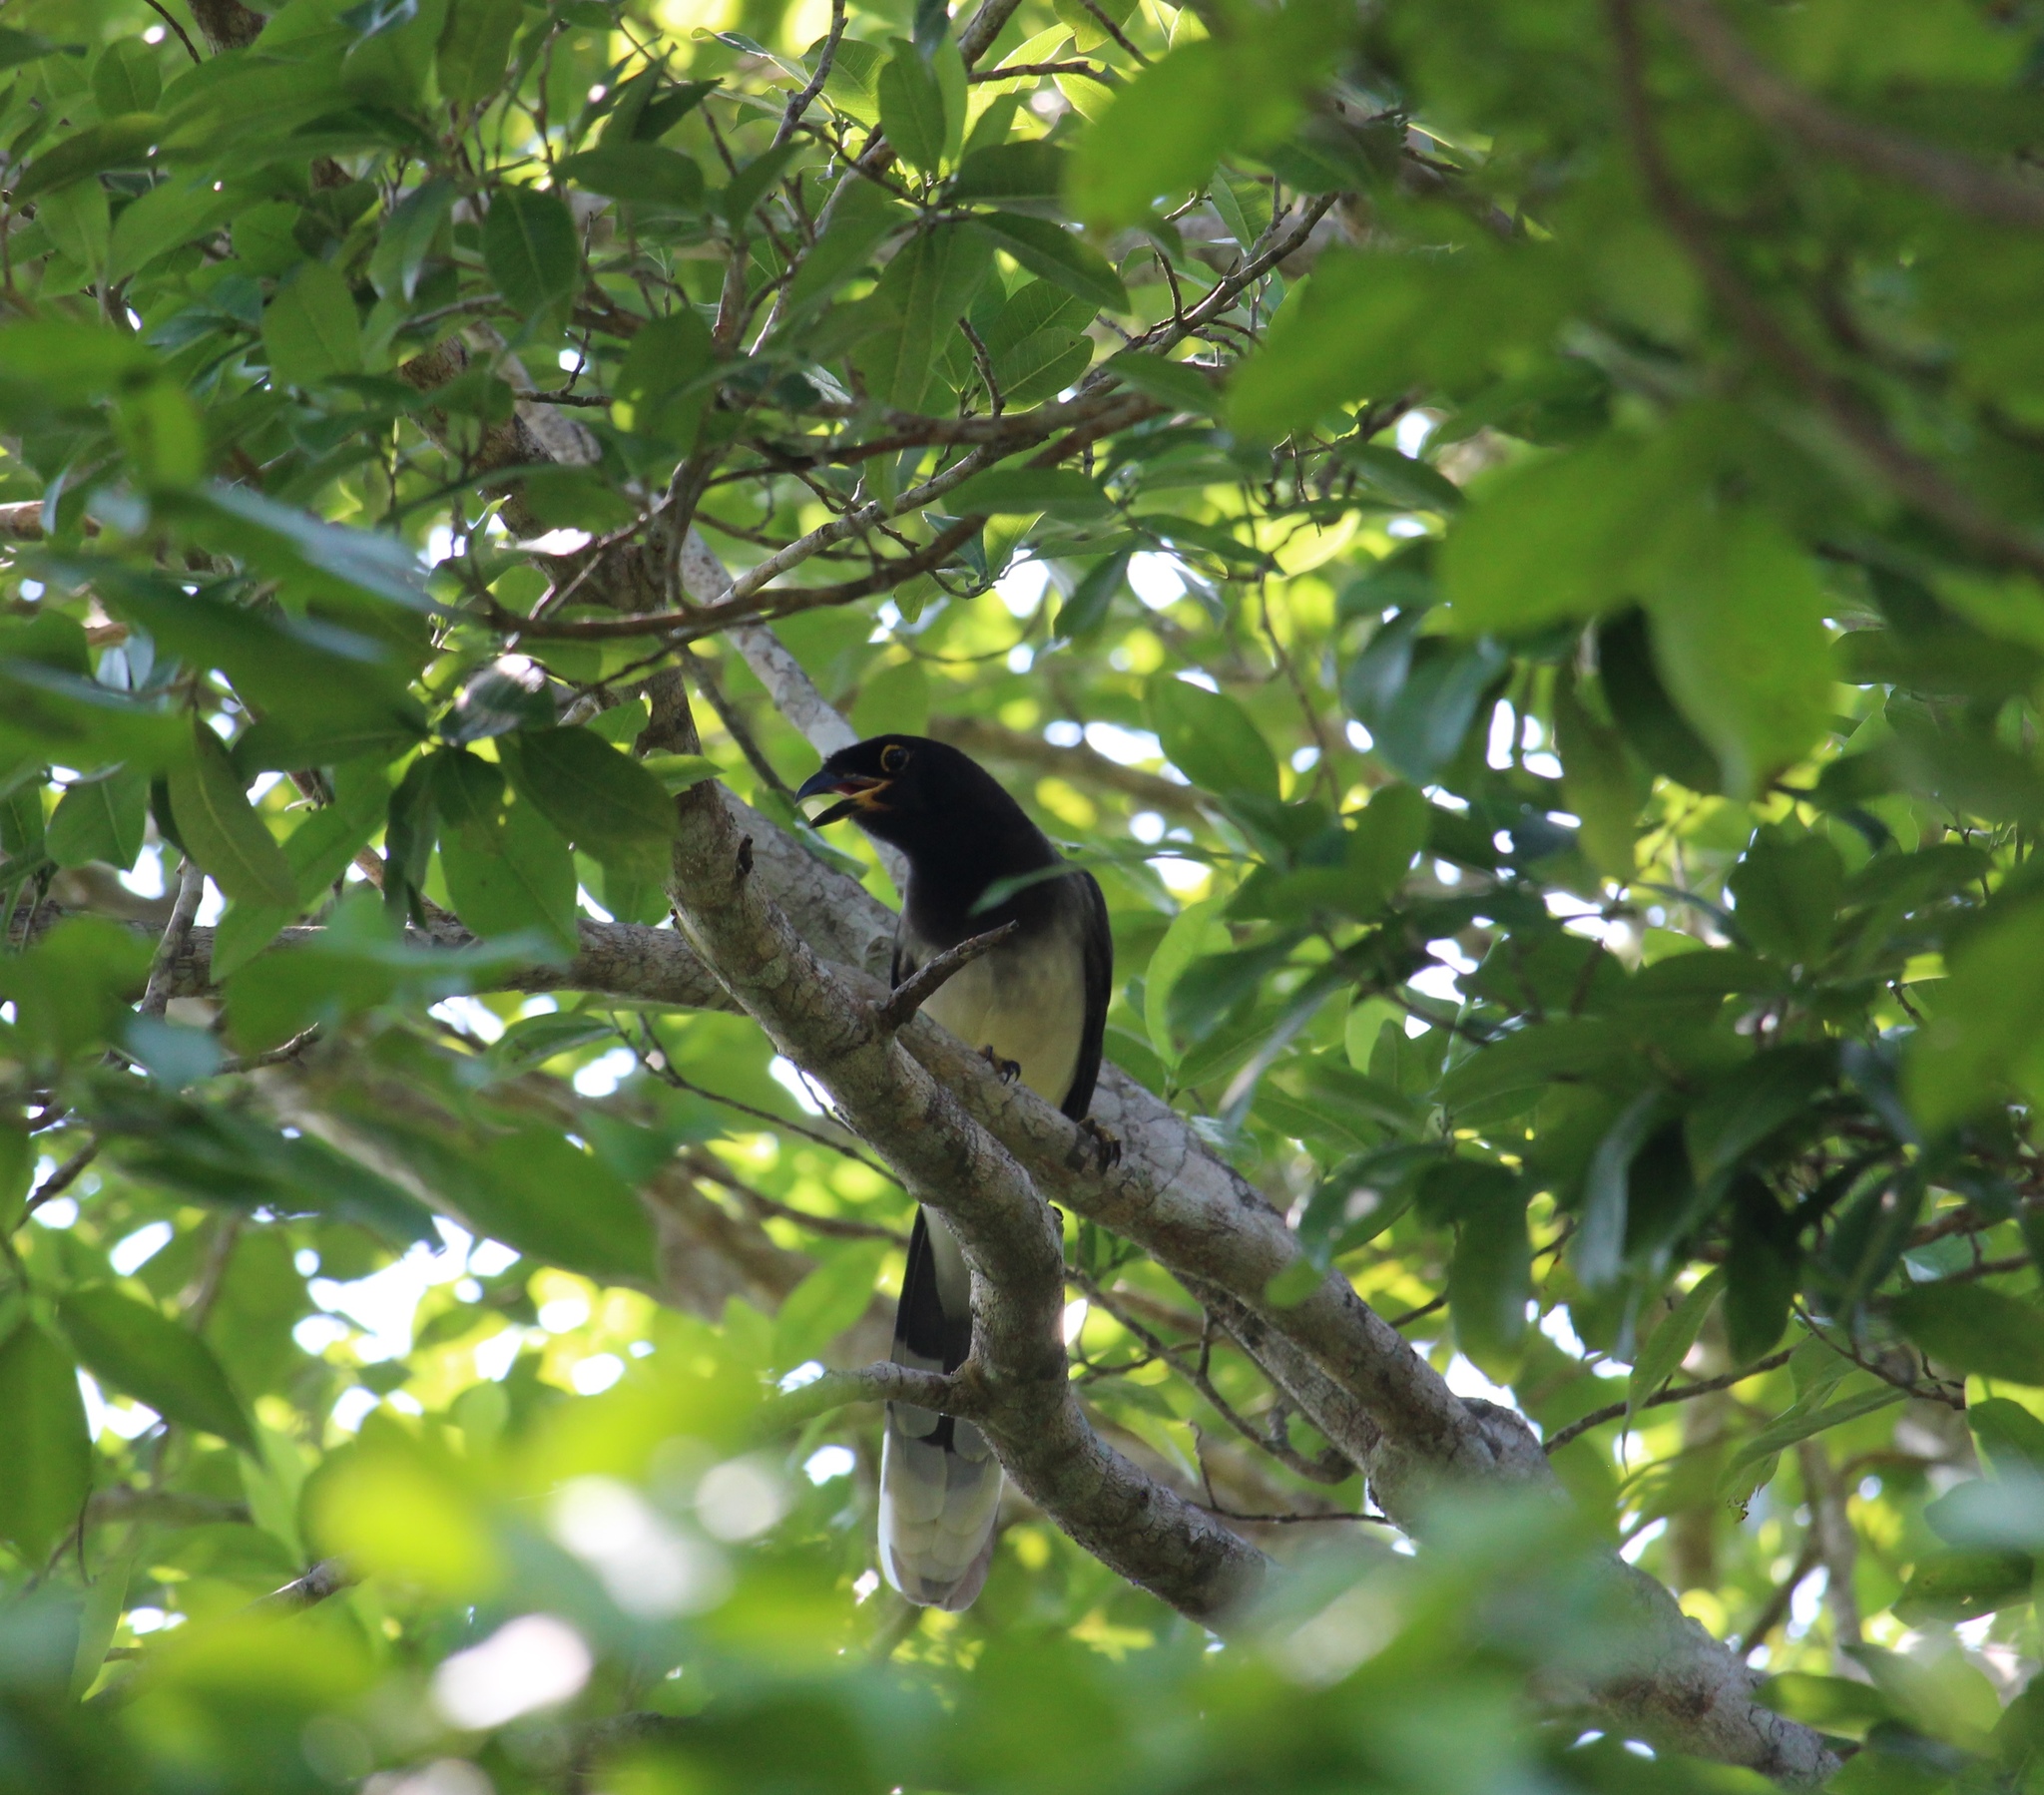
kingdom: Animalia
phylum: Chordata
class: Aves
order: Passeriformes
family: Corvidae
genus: Psilorhinus
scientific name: Psilorhinus morio
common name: Brown jay
